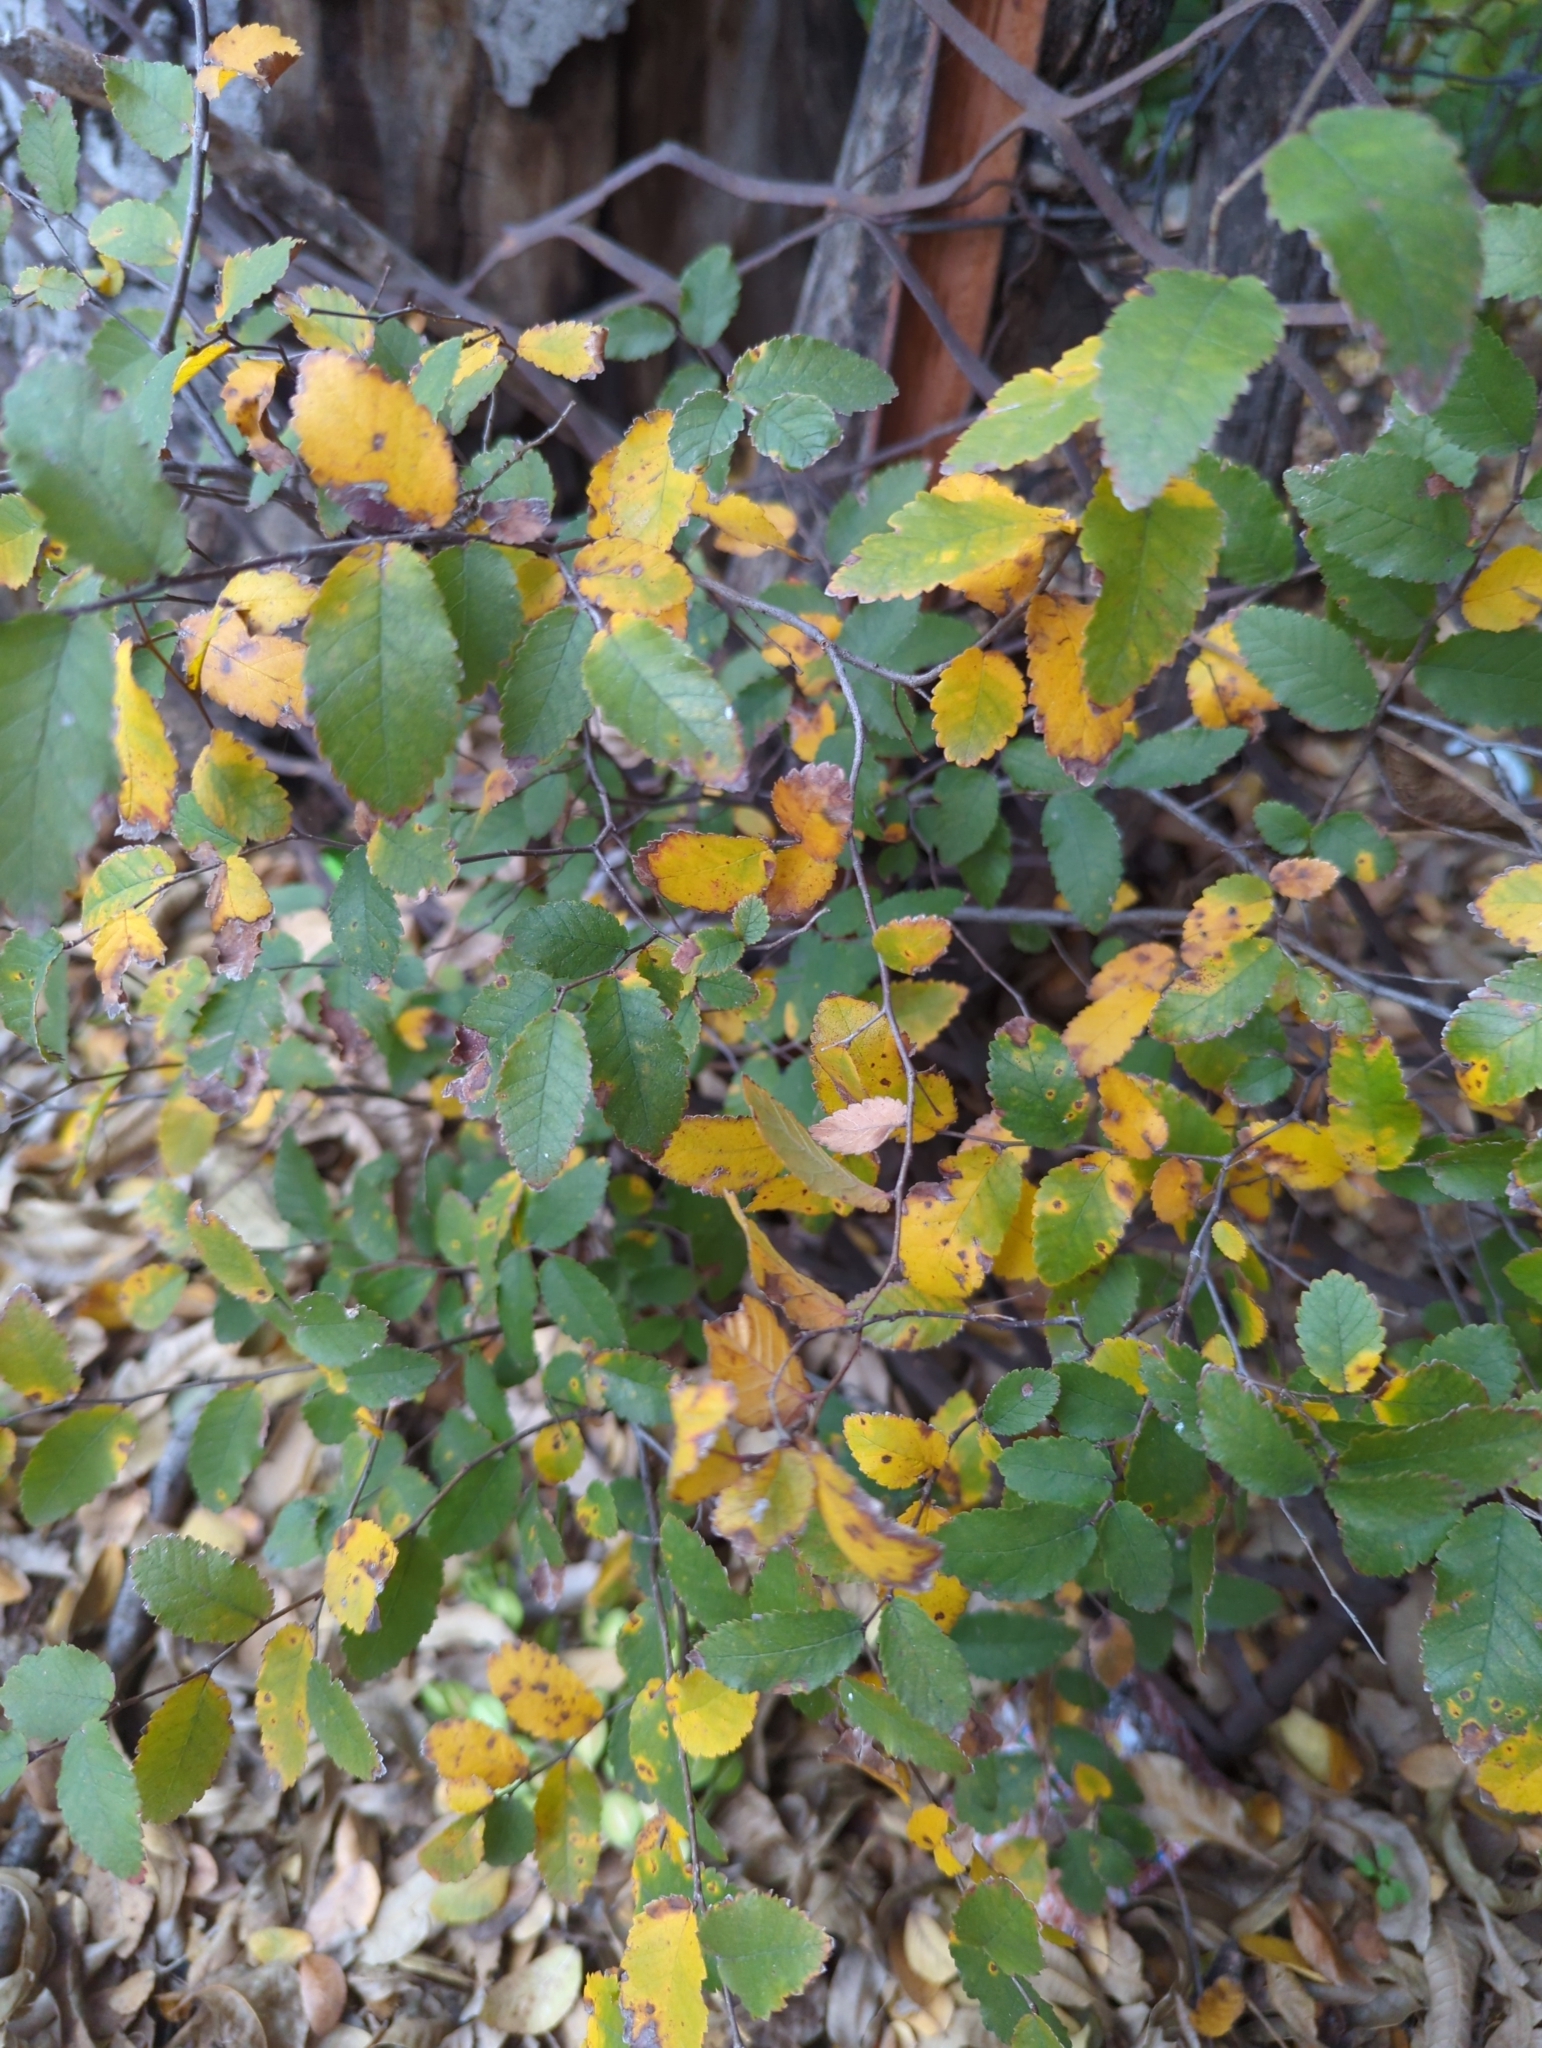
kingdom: Plantae
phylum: Tracheophyta
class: Magnoliopsida
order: Rosales
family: Ulmaceae
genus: Ulmus
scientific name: Ulmus crassifolia
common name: Basket elm
